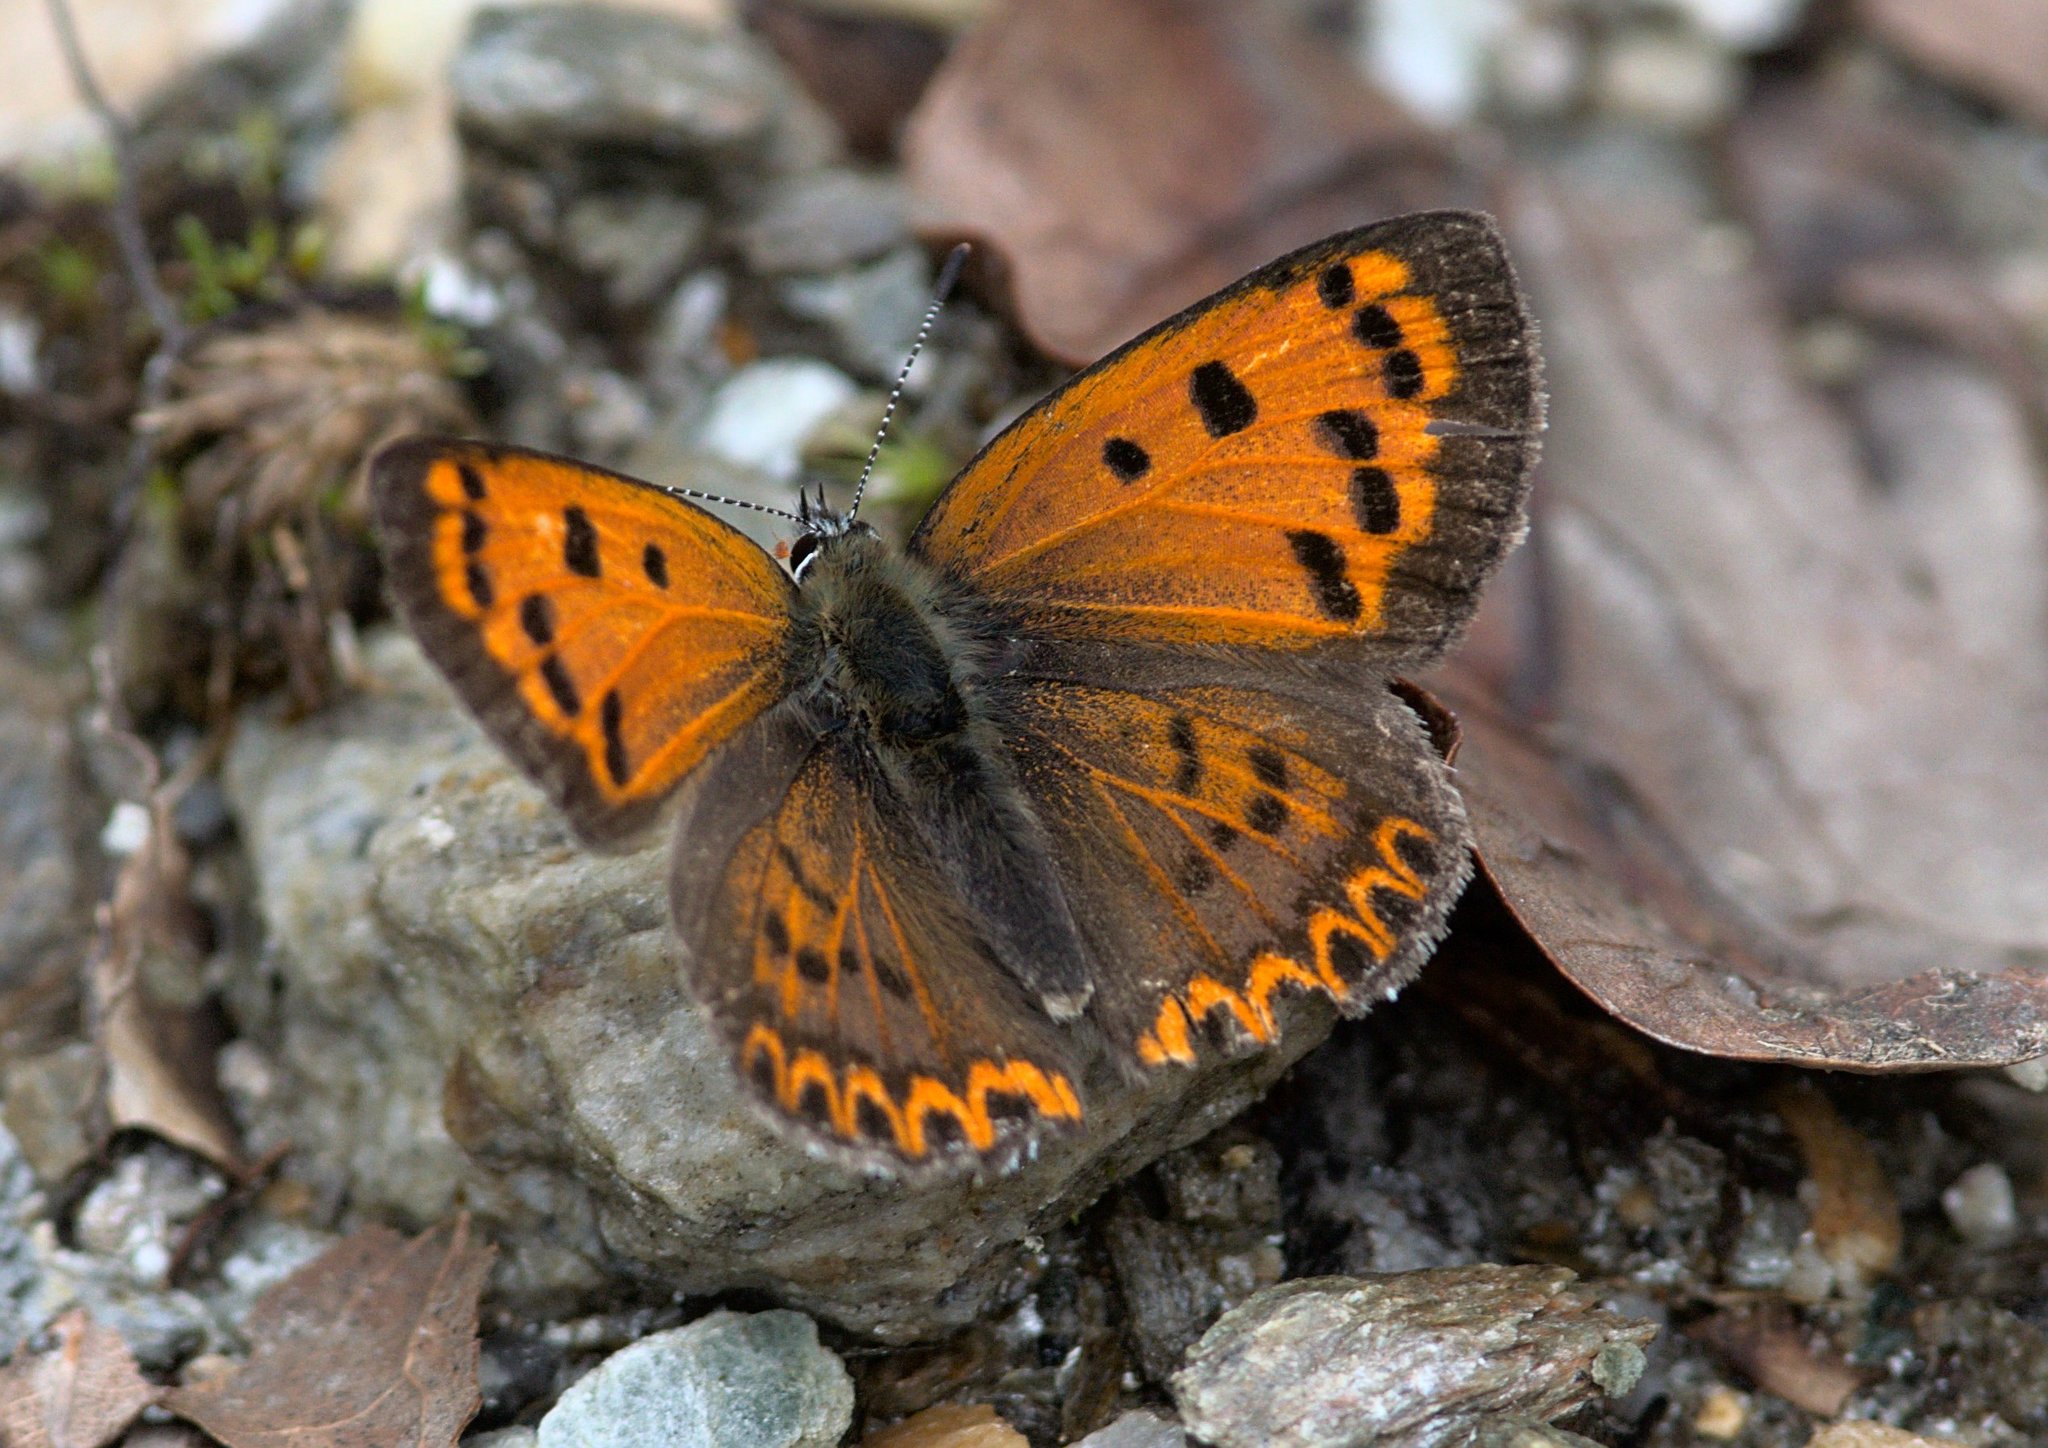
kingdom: Animalia
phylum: Arthropoda
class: Insecta
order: Lepidoptera
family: Lycaenidae
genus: Lycaena
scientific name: Lycaena panava
